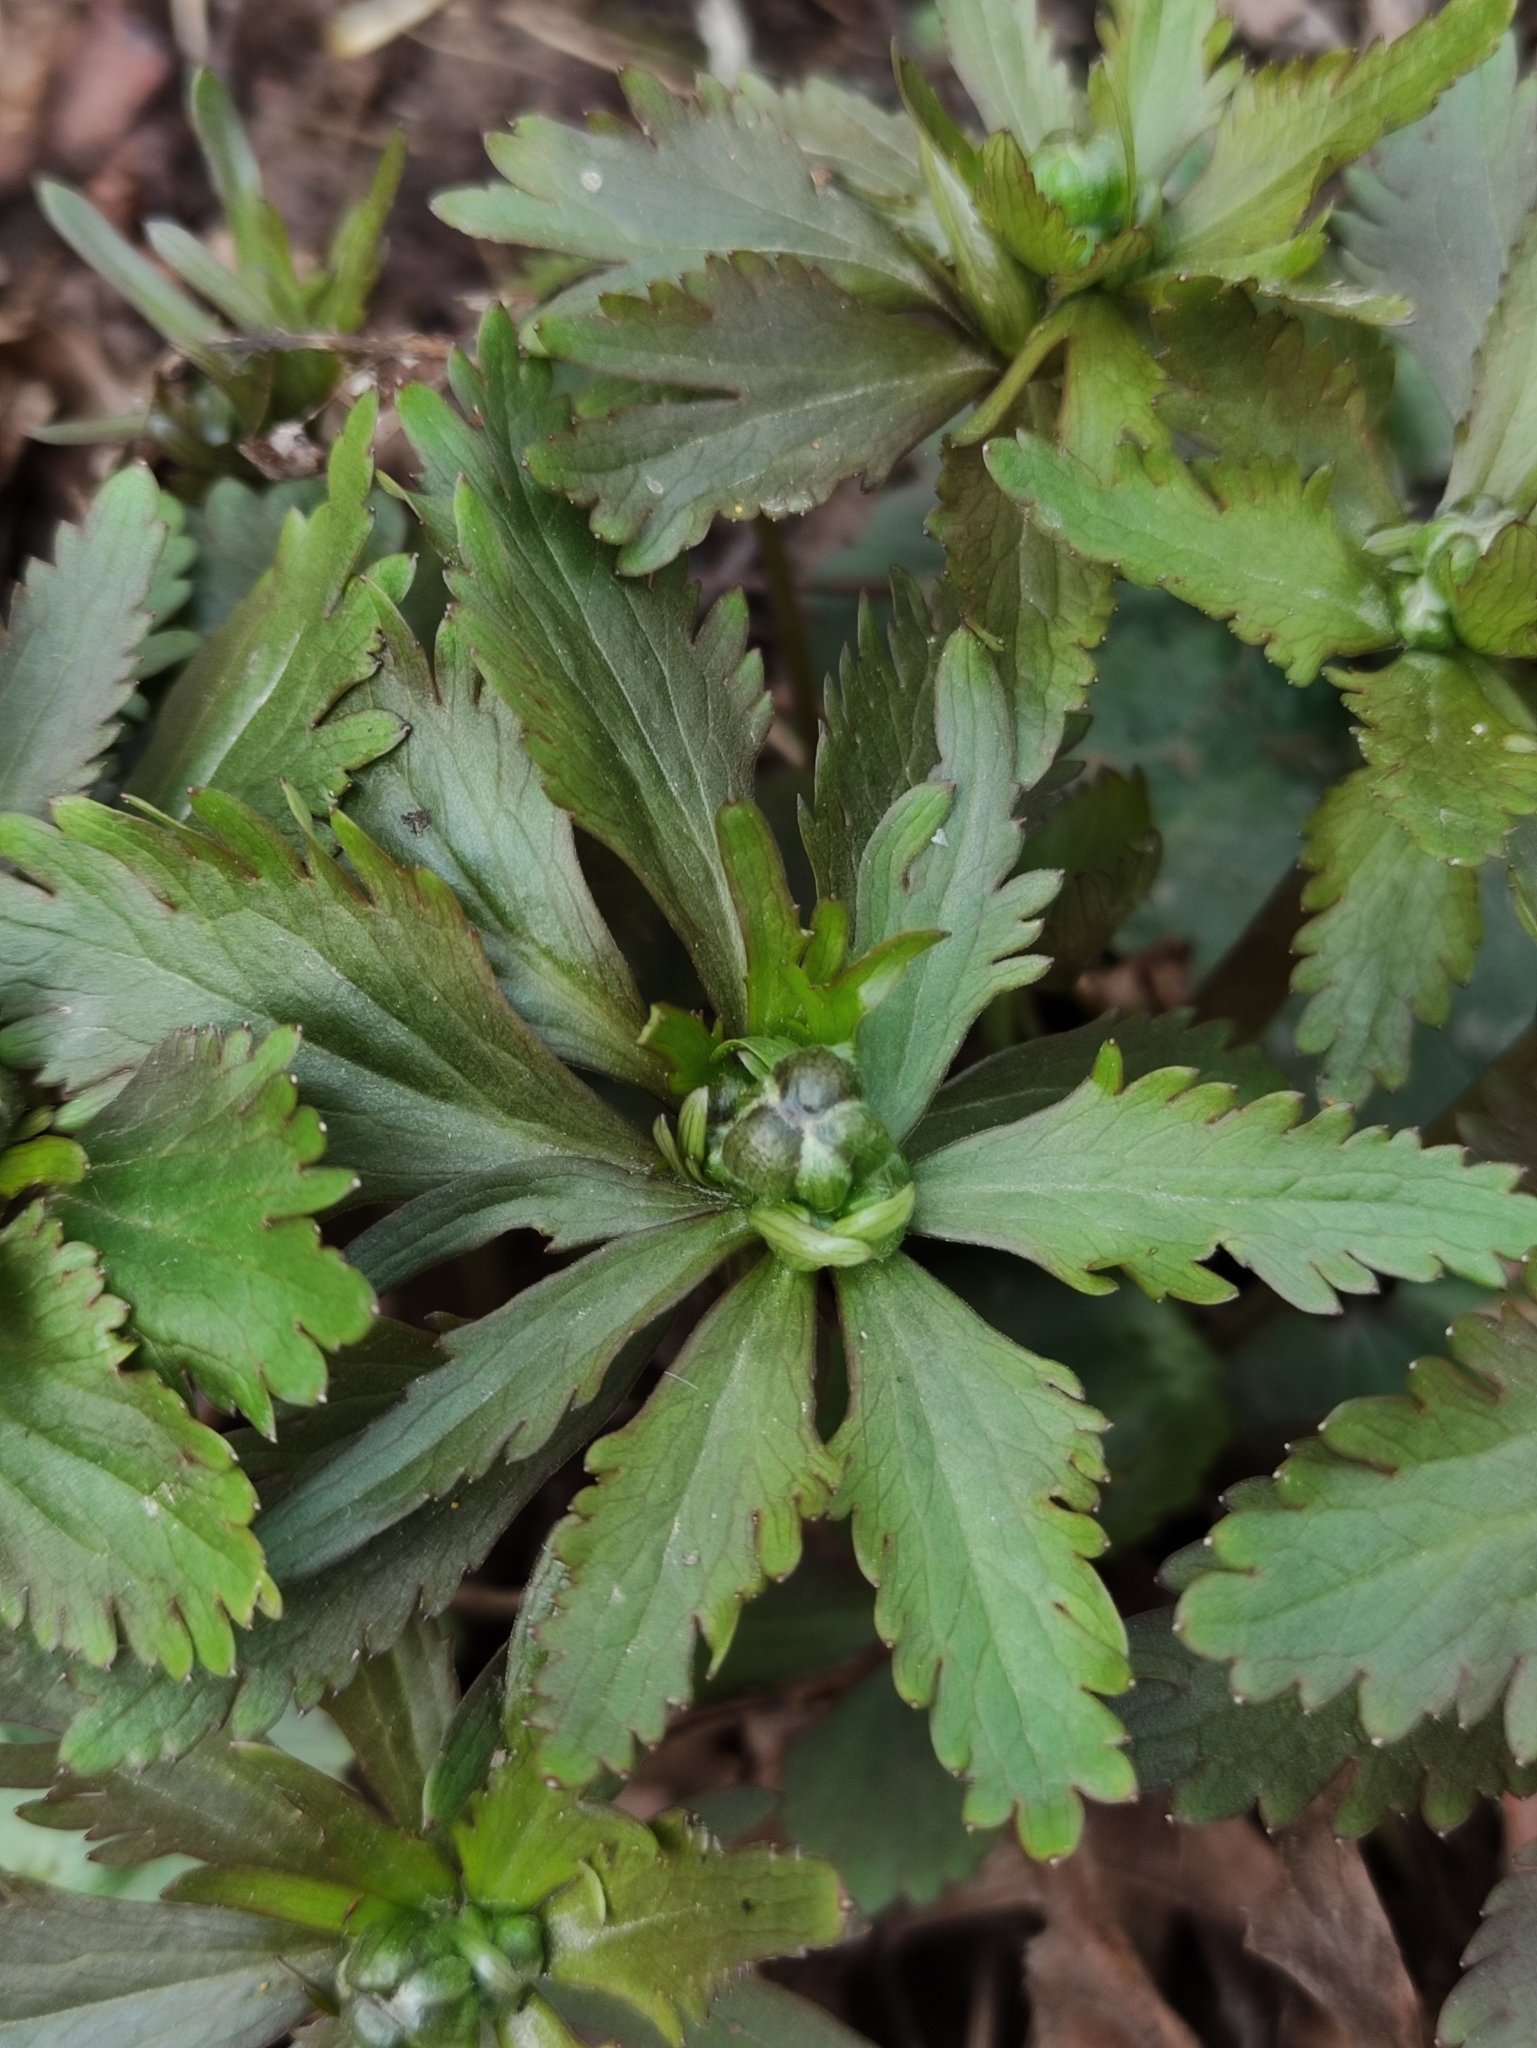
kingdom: Plantae
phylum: Tracheophyta
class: Magnoliopsida
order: Ranunculales
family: Ranunculaceae
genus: Ranunculus
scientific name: Ranunculus cassubicus
